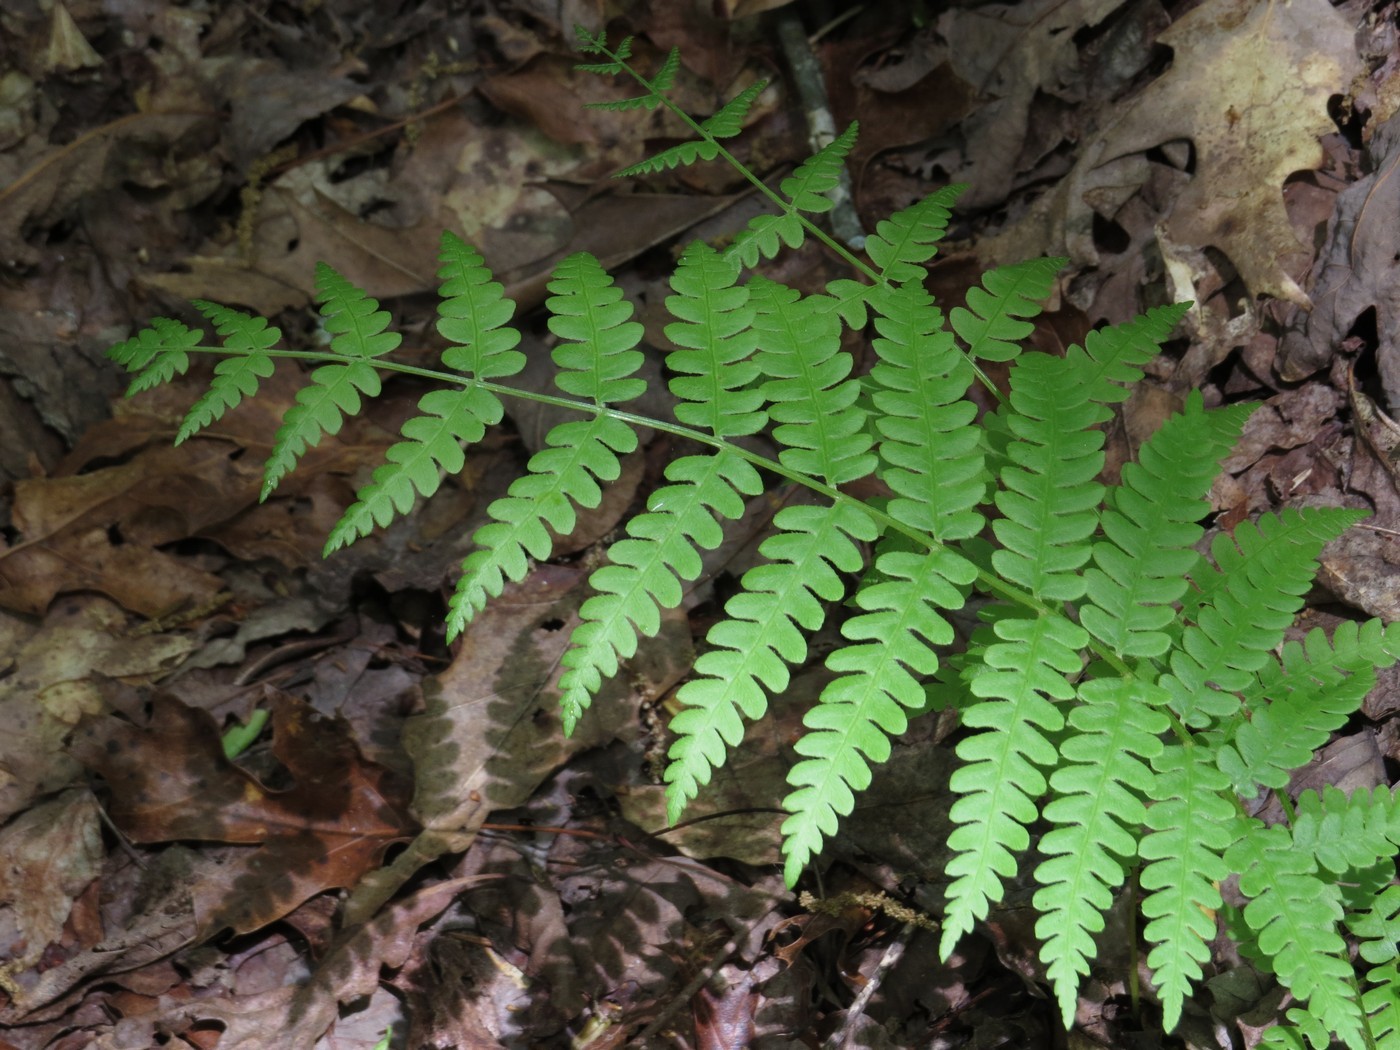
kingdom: Plantae
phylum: Tracheophyta
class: Polypodiopsida
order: Osmundales
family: Osmundaceae
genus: Osmundastrum
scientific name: Osmundastrum cinnamomeum
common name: Cinnamon fern
